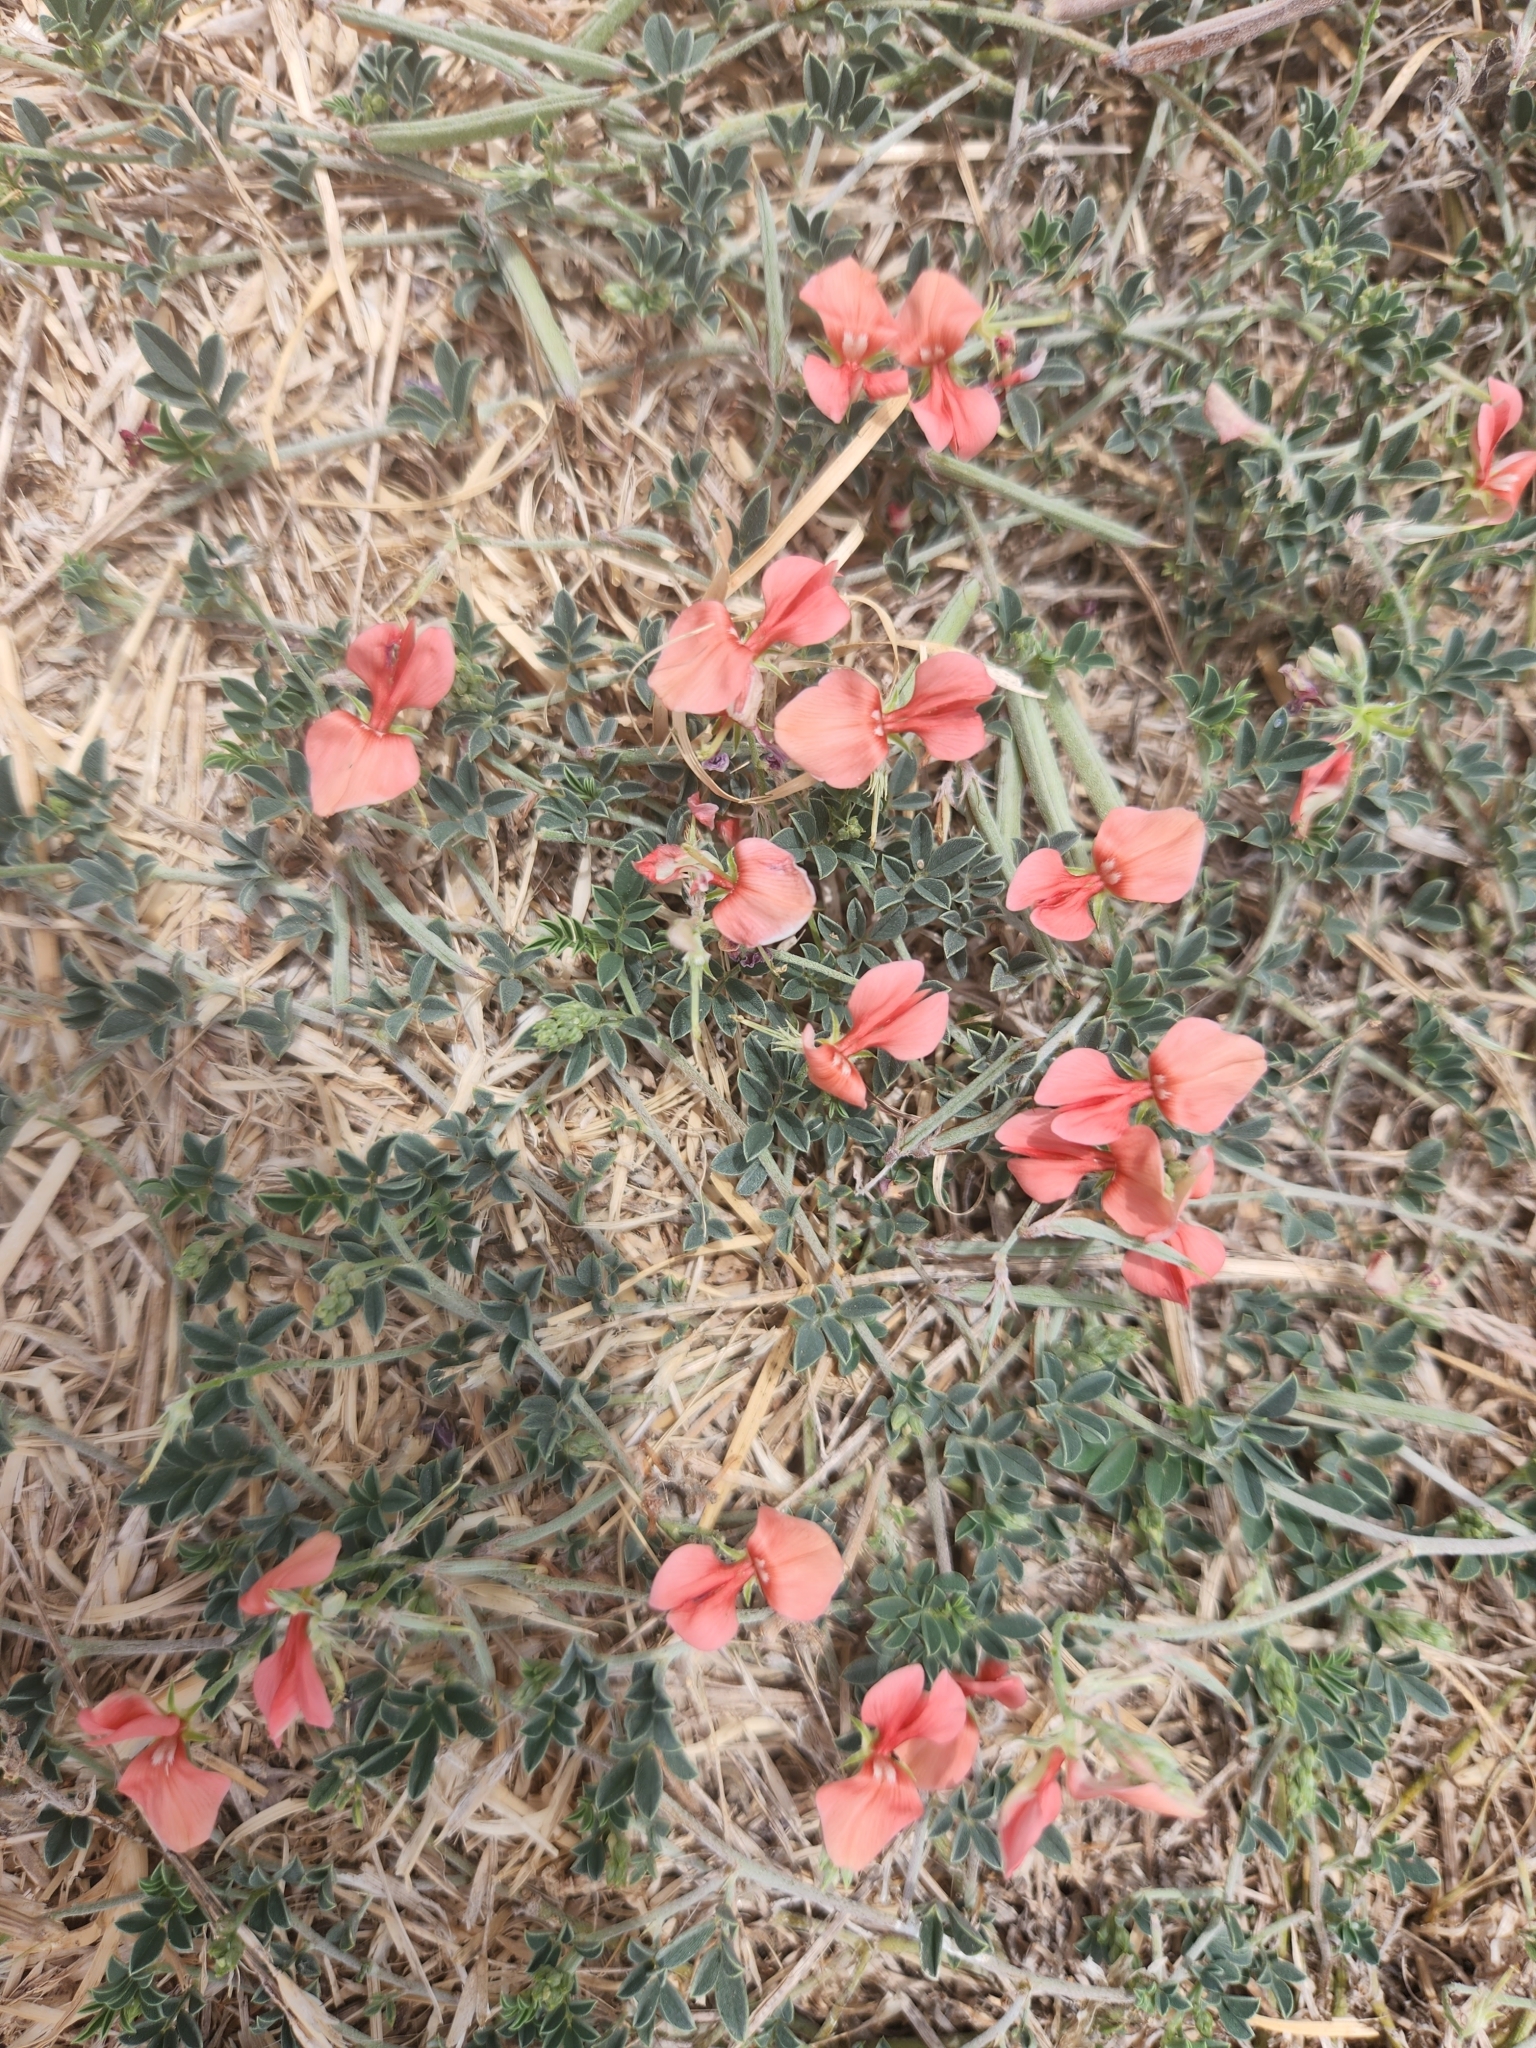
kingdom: Plantae
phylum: Tracheophyta
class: Magnoliopsida
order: Fabales
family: Fabaceae
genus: Indigofera
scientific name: Indigofera miniata
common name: Coast indigo
